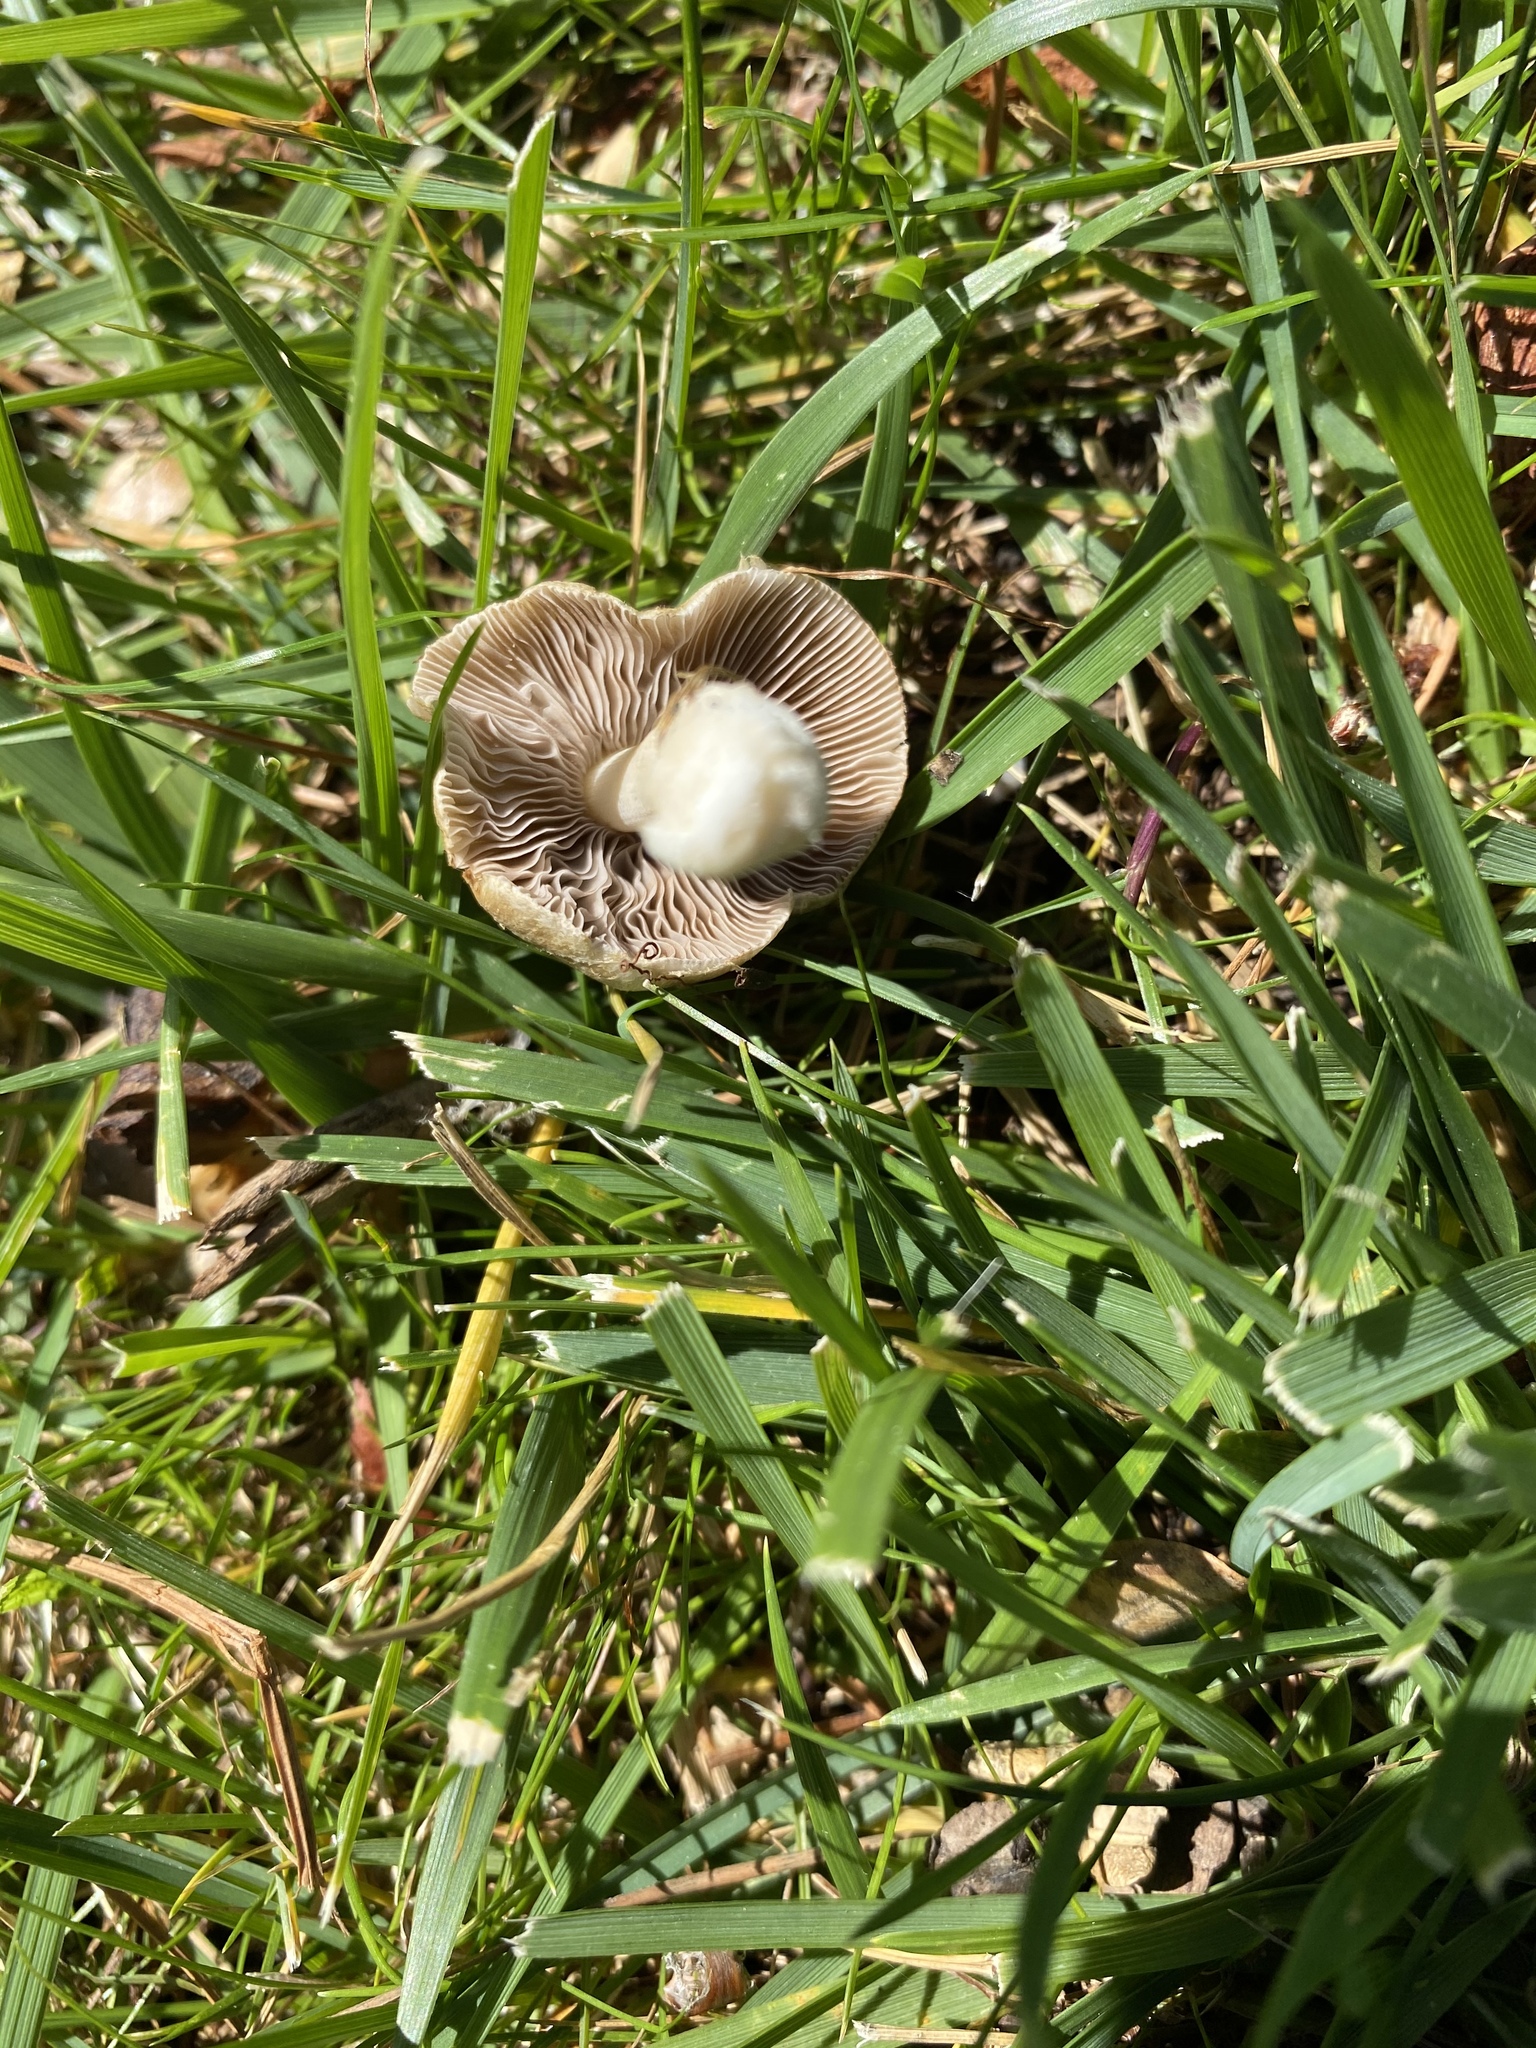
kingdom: Fungi
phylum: Basidiomycota
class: Agaricomycetes
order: Agaricales
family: Psathyrellaceae
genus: Candolleomyces
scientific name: Candolleomyces candolleanus
